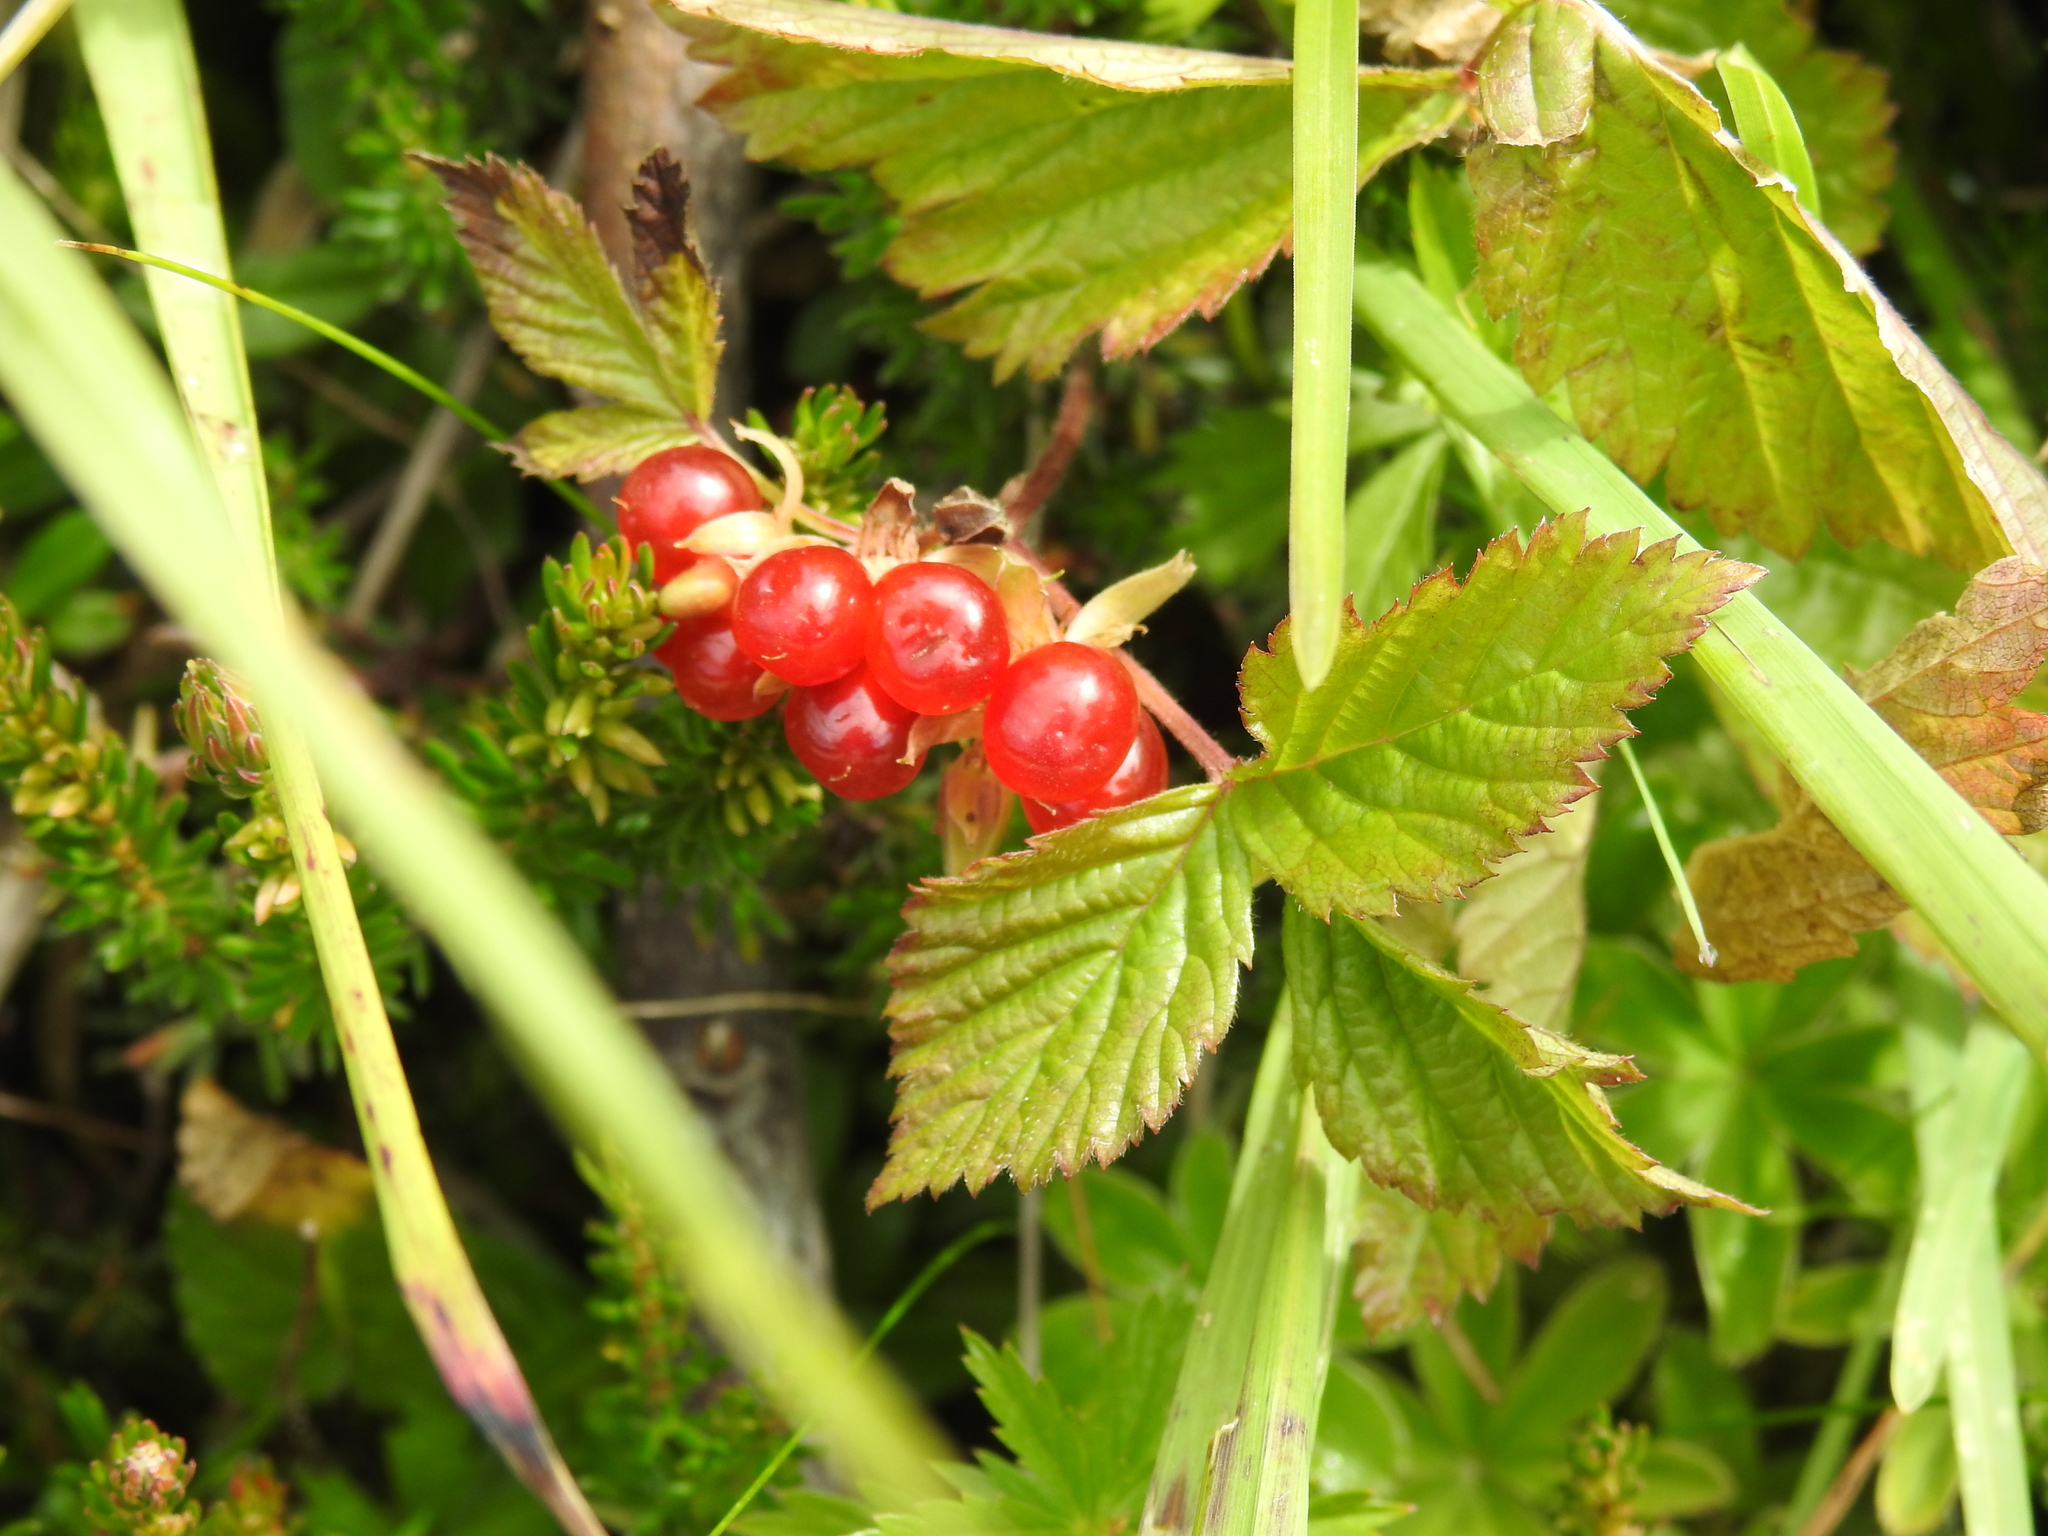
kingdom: Plantae
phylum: Tracheophyta
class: Magnoliopsida
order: Rosales
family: Rosaceae
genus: Rubus
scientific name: Rubus saxatilis
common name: Stone bramble
